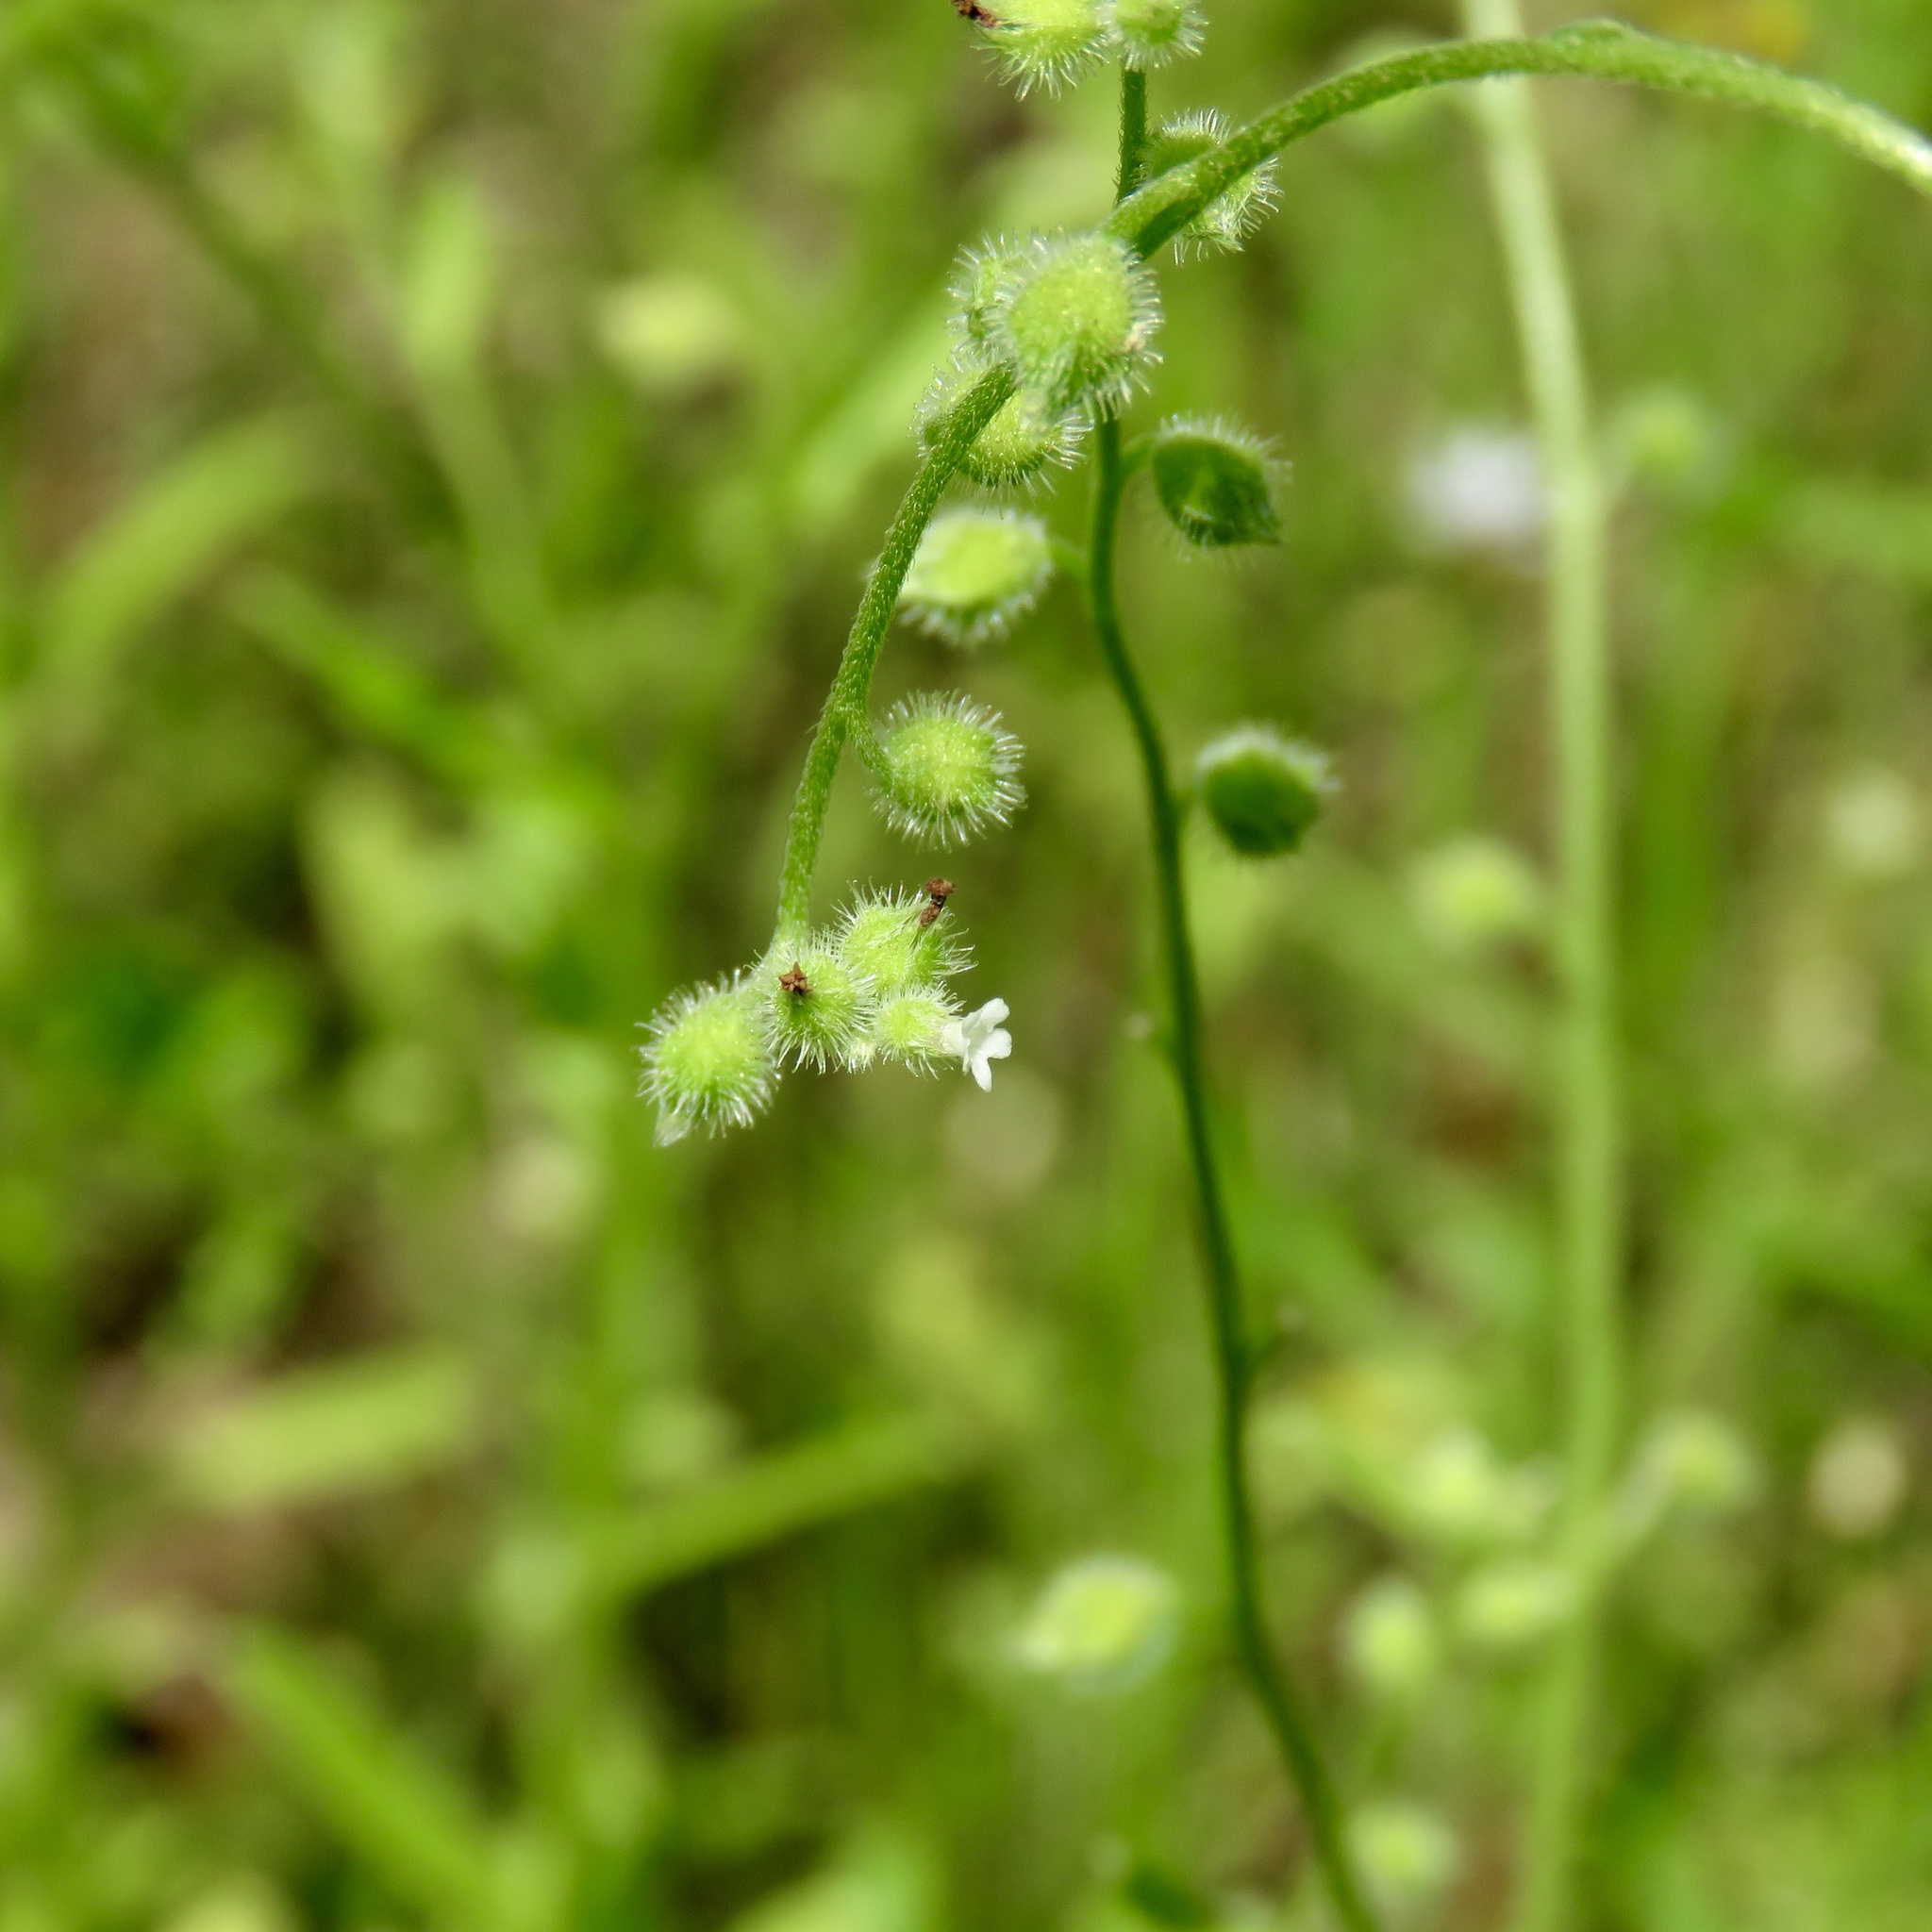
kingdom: Plantae
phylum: Tracheophyta
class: Magnoliopsida
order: Boraginales
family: Boraginaceae
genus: Myosotis
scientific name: Myosotis macrosperma
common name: Large-seed forget-me-not
